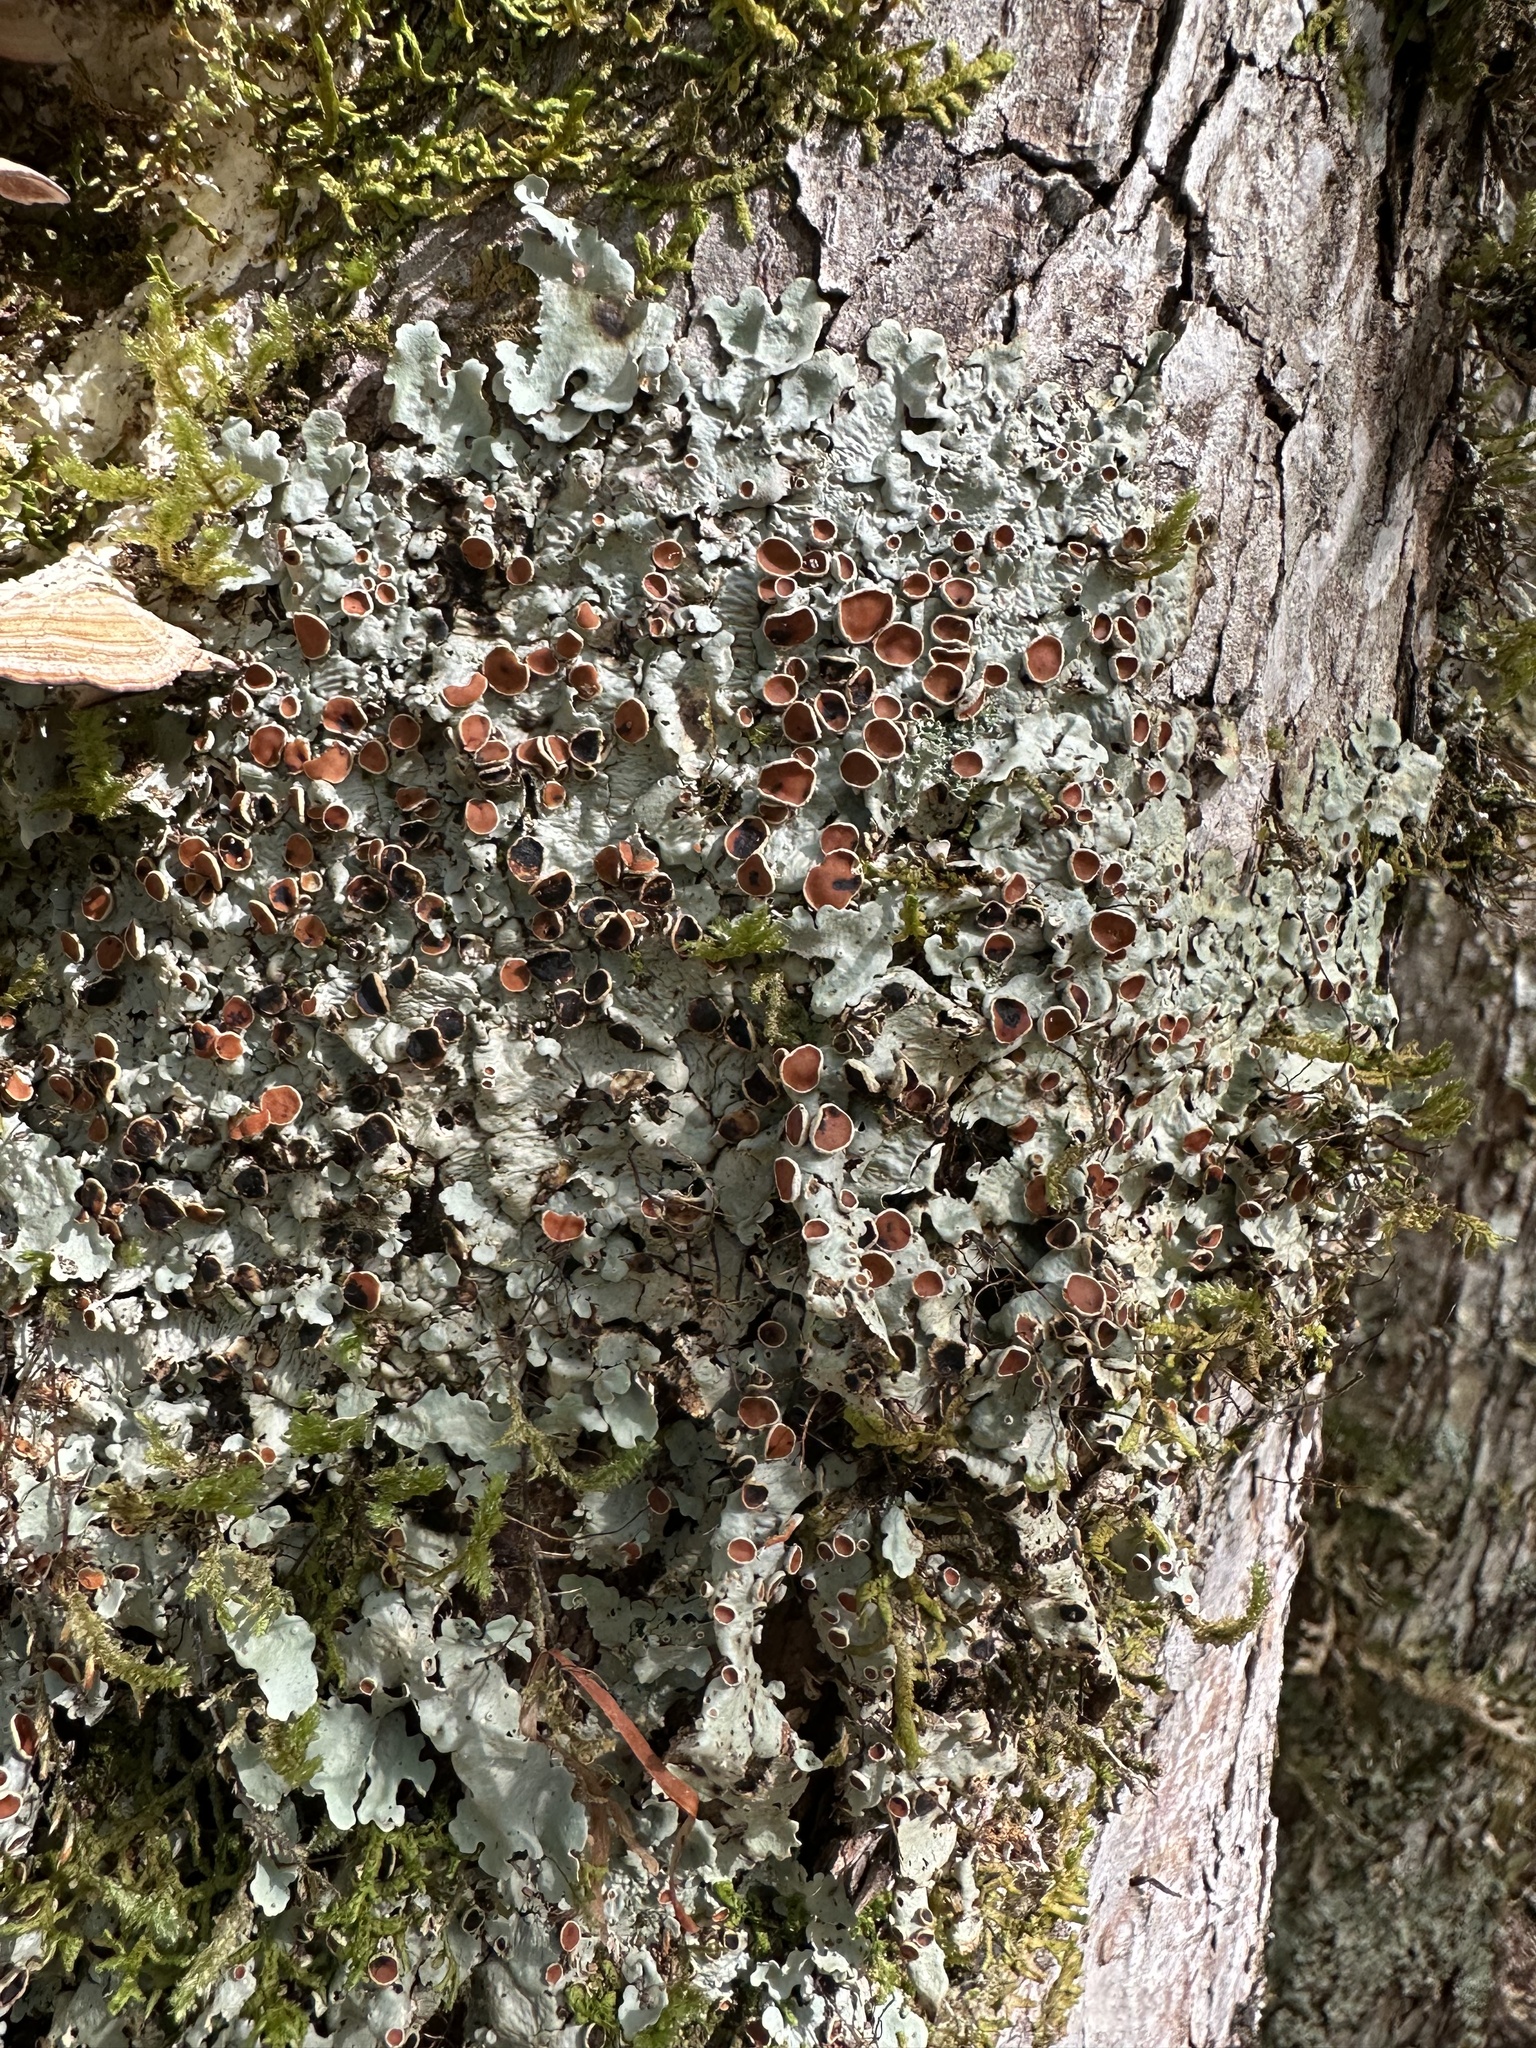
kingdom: Fungi
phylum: Ascomycota
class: Lecanoromycetes
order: Peltigerales
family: Lobariaceae
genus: Ricasolia
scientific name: Ricasolia quercizans
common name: Smooth lungwort
